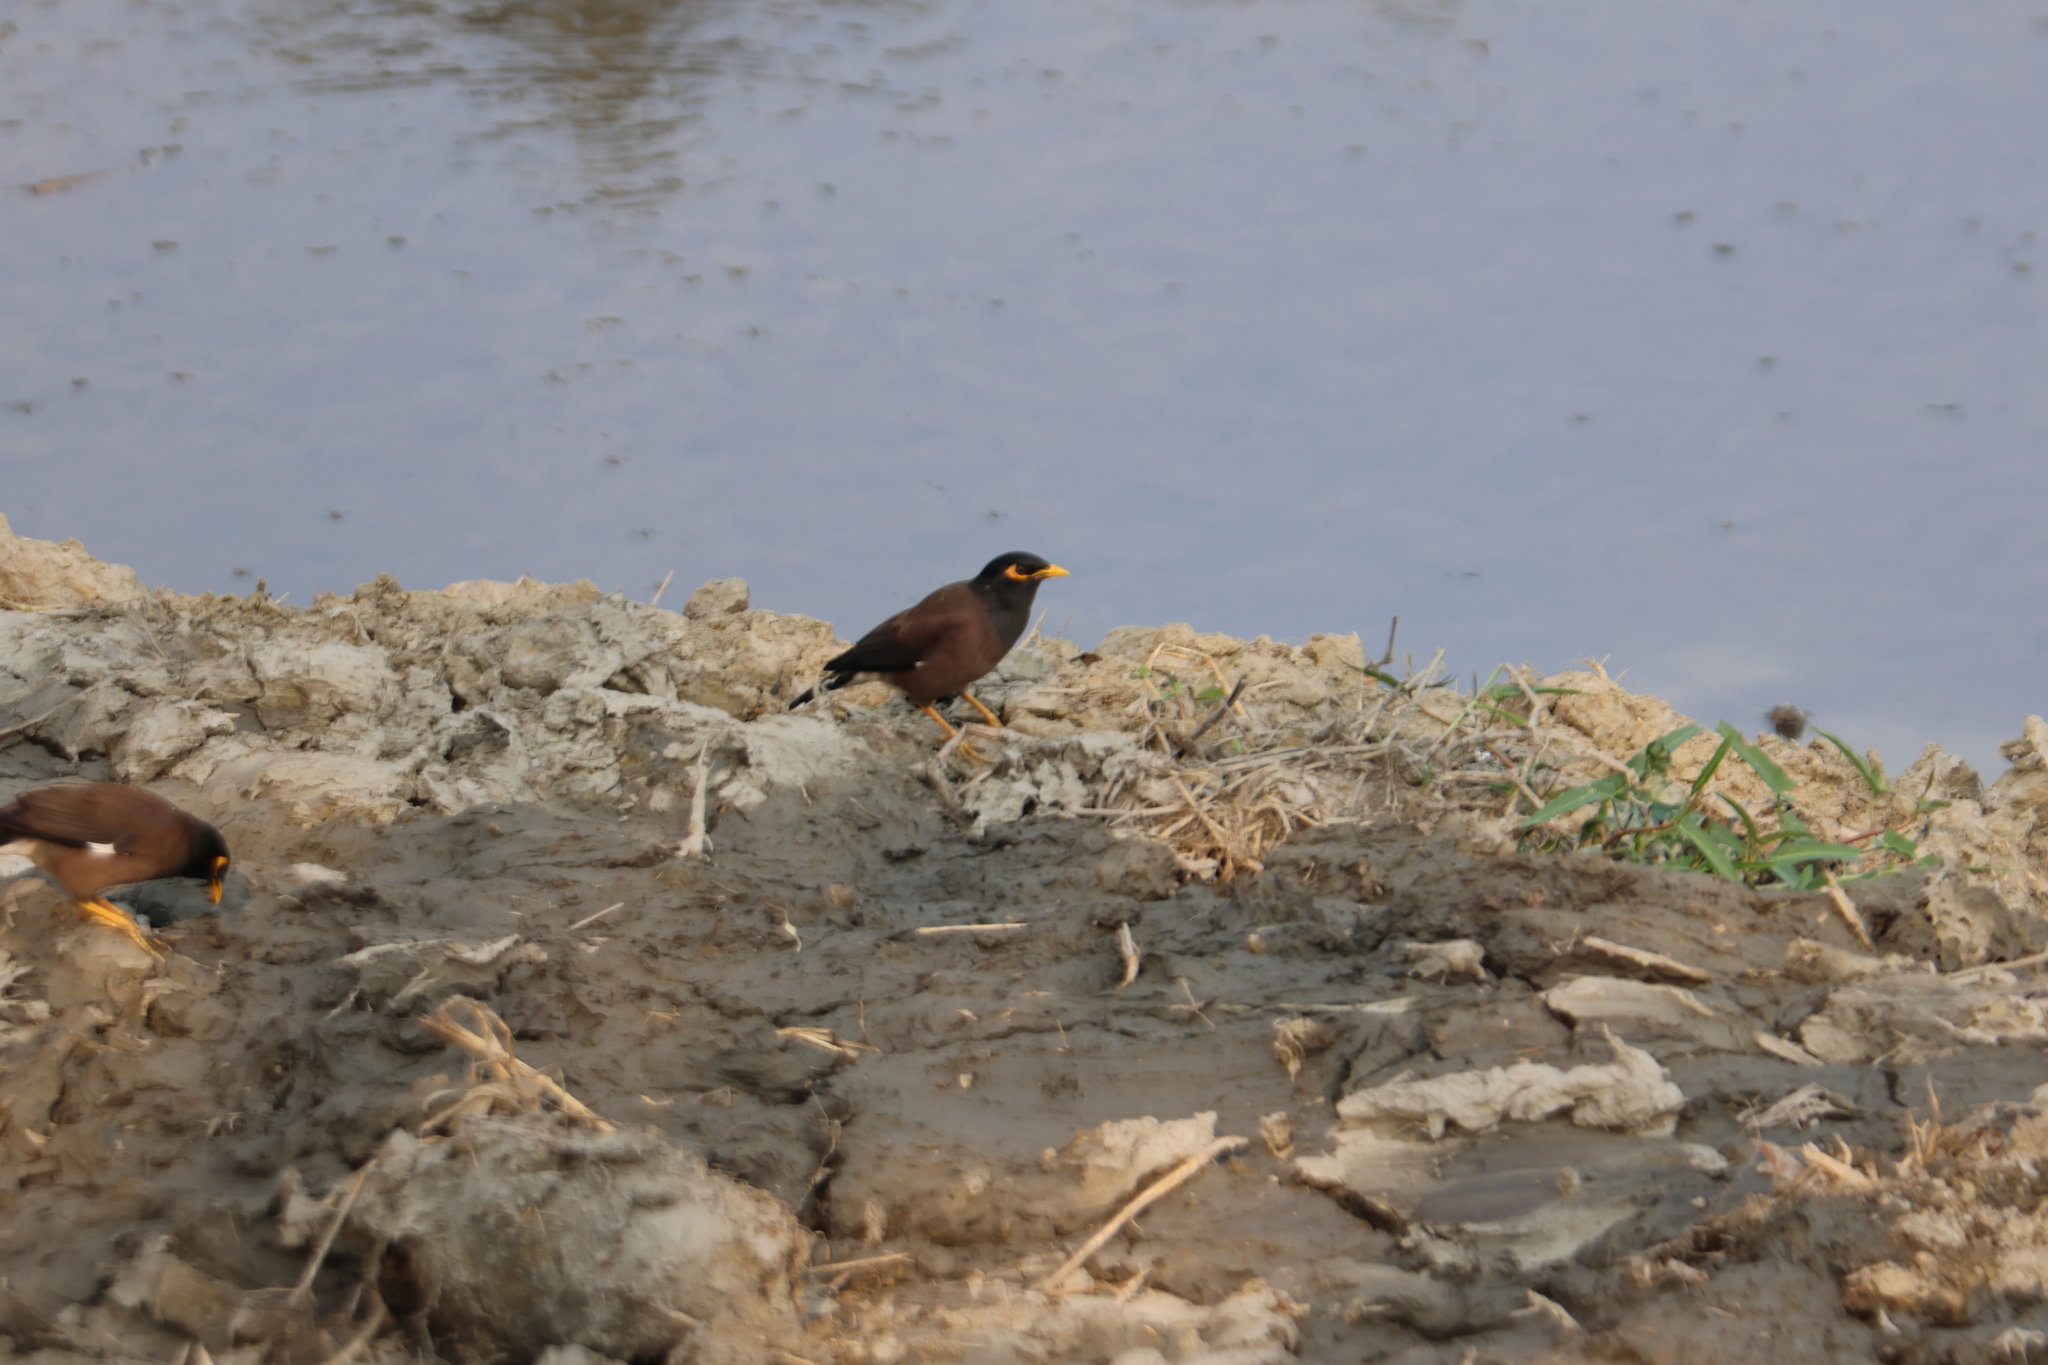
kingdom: Animalia
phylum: Chordata
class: Aves
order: Passeriformes
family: Sturnidae
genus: Acridotheres
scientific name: Acridotheres tristis
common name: Common myna
